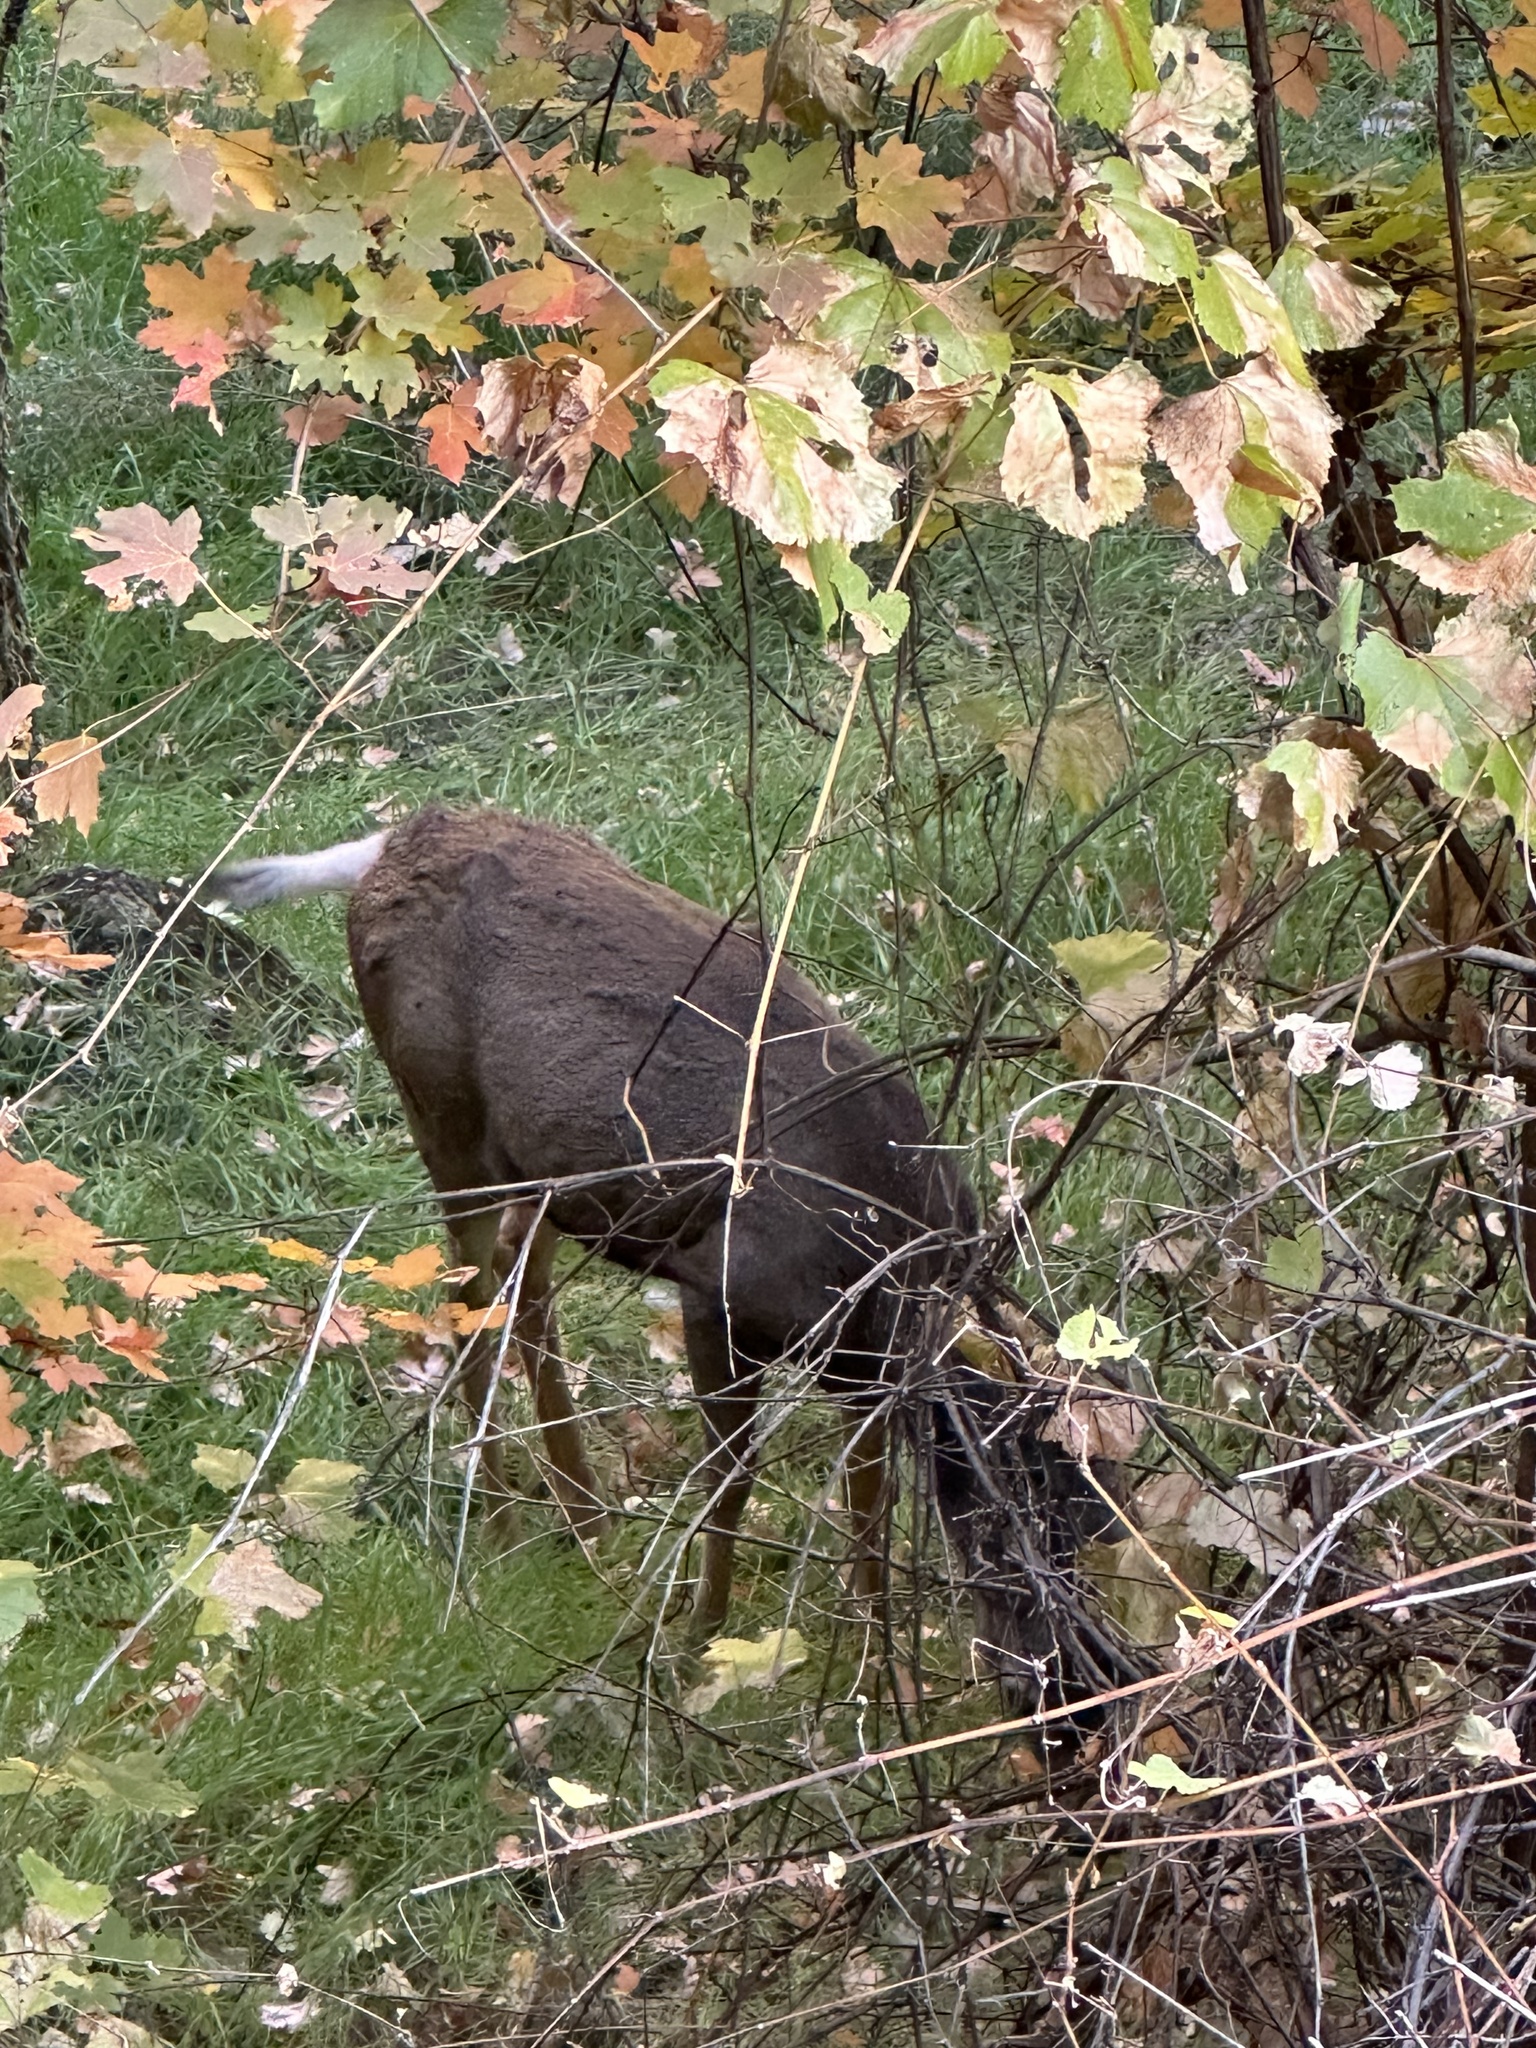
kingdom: Animalia
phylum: Chordata
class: Mammalia
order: Artiodactyla
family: Cervidae
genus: Odocoileus
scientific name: Odocoileus hemionus
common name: Mule deer
